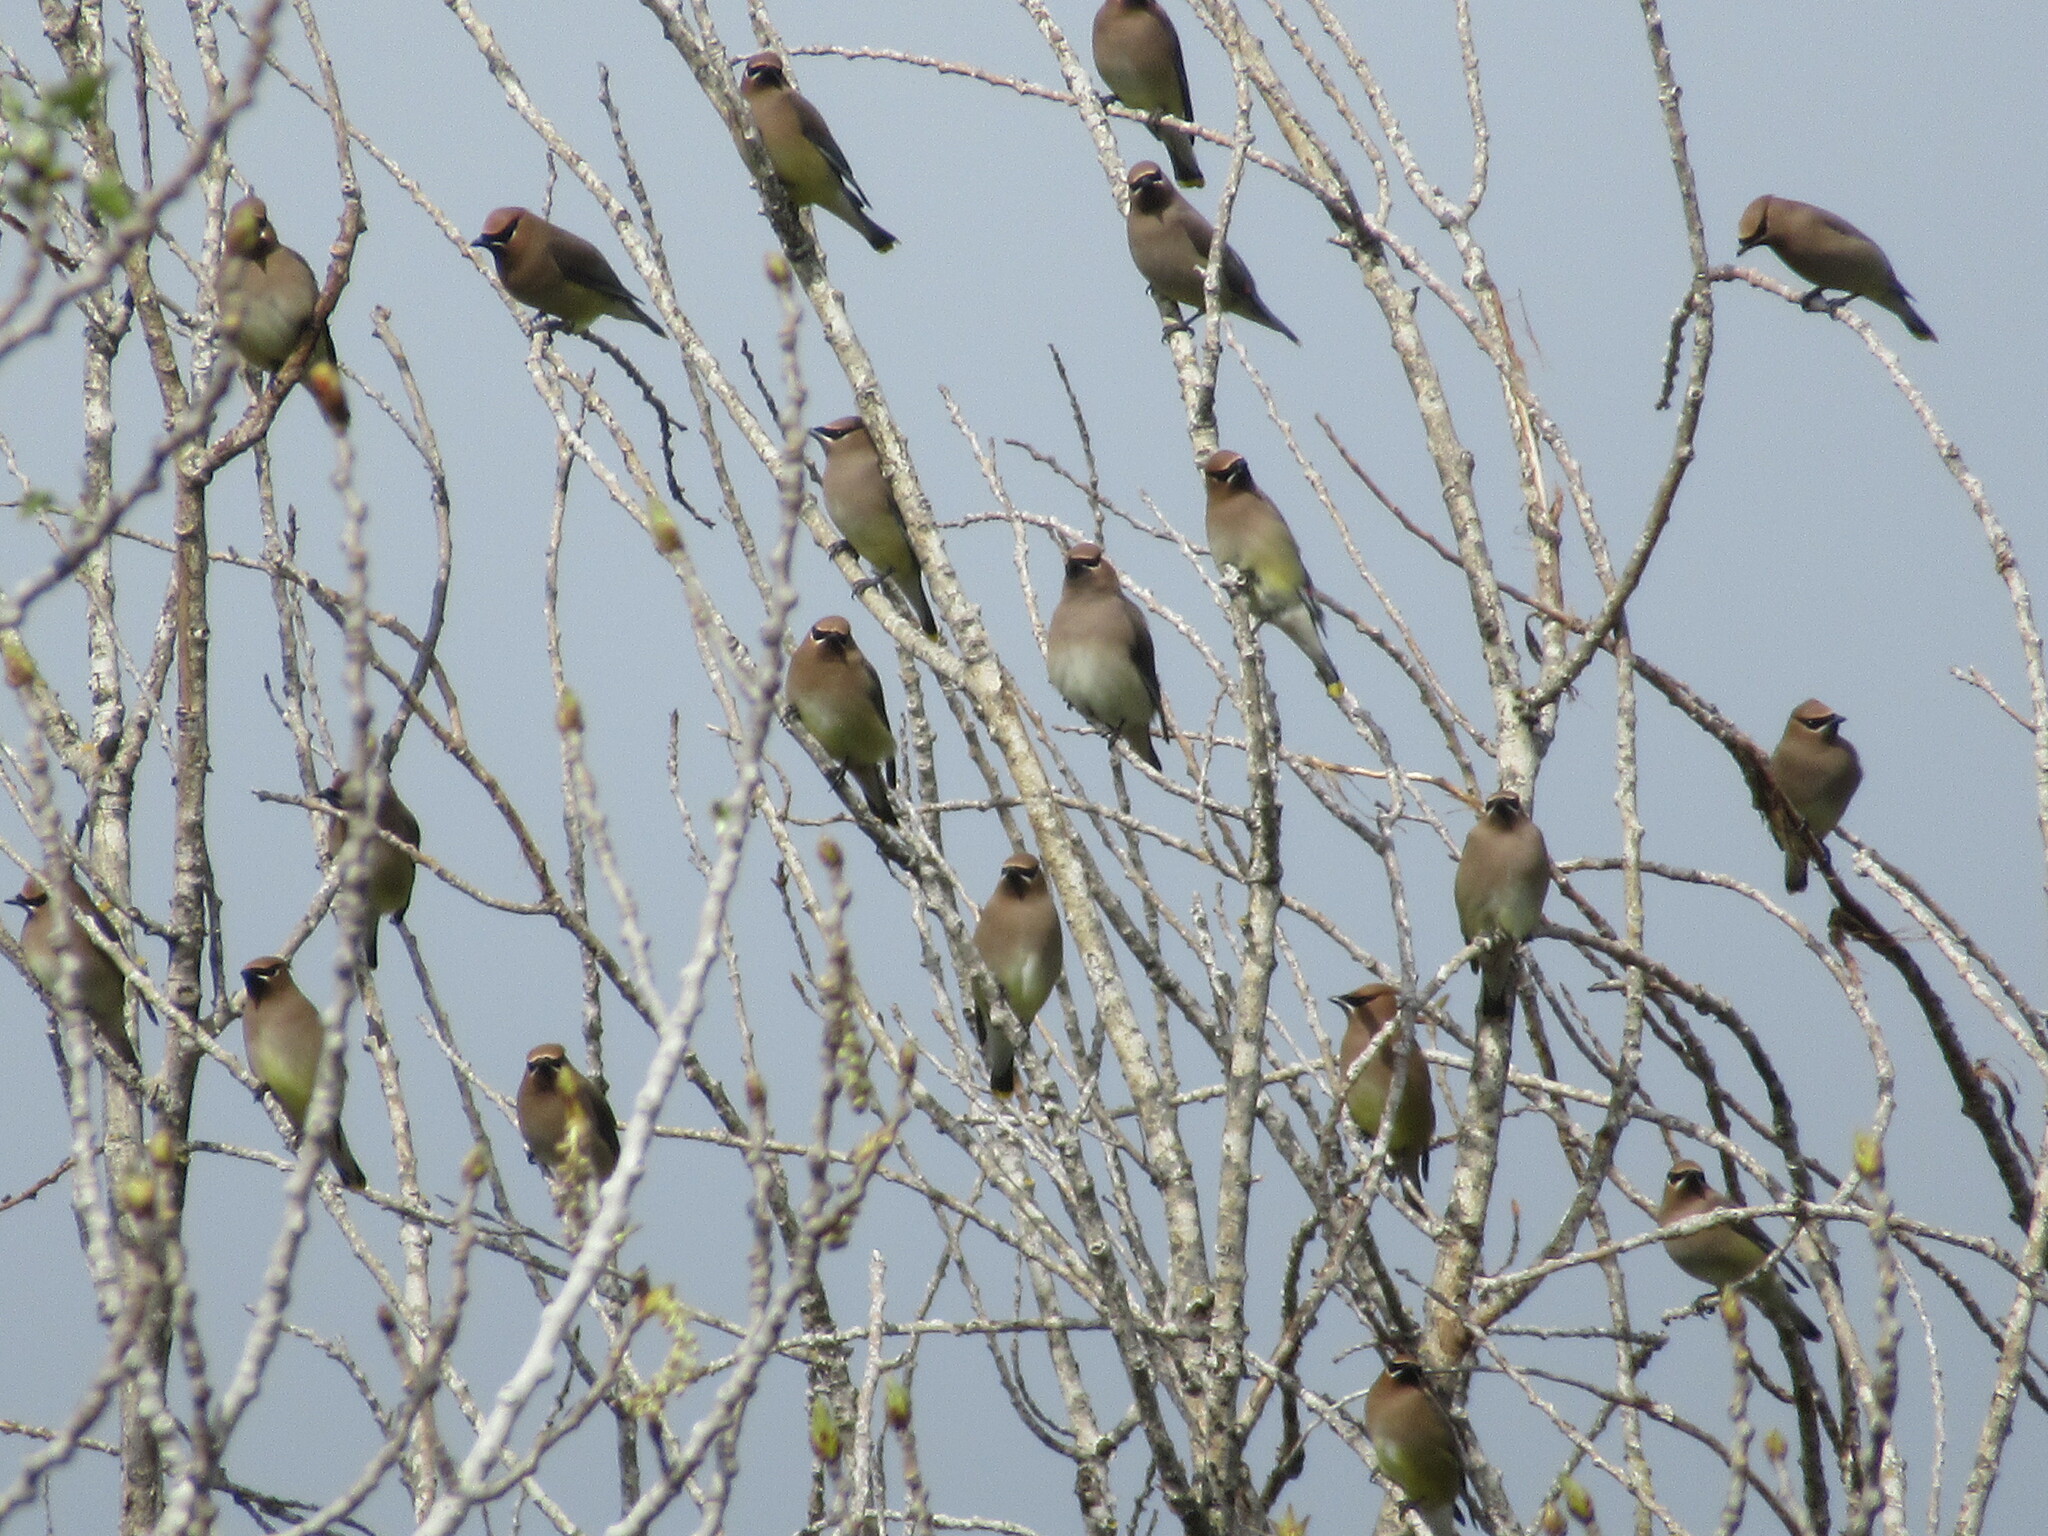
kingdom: Animalia
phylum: Chordata
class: Aves
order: Passeriformes
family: Bombycillidae
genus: Bombycilla
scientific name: Bombycilla cedrorum
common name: Cedar waxwing
